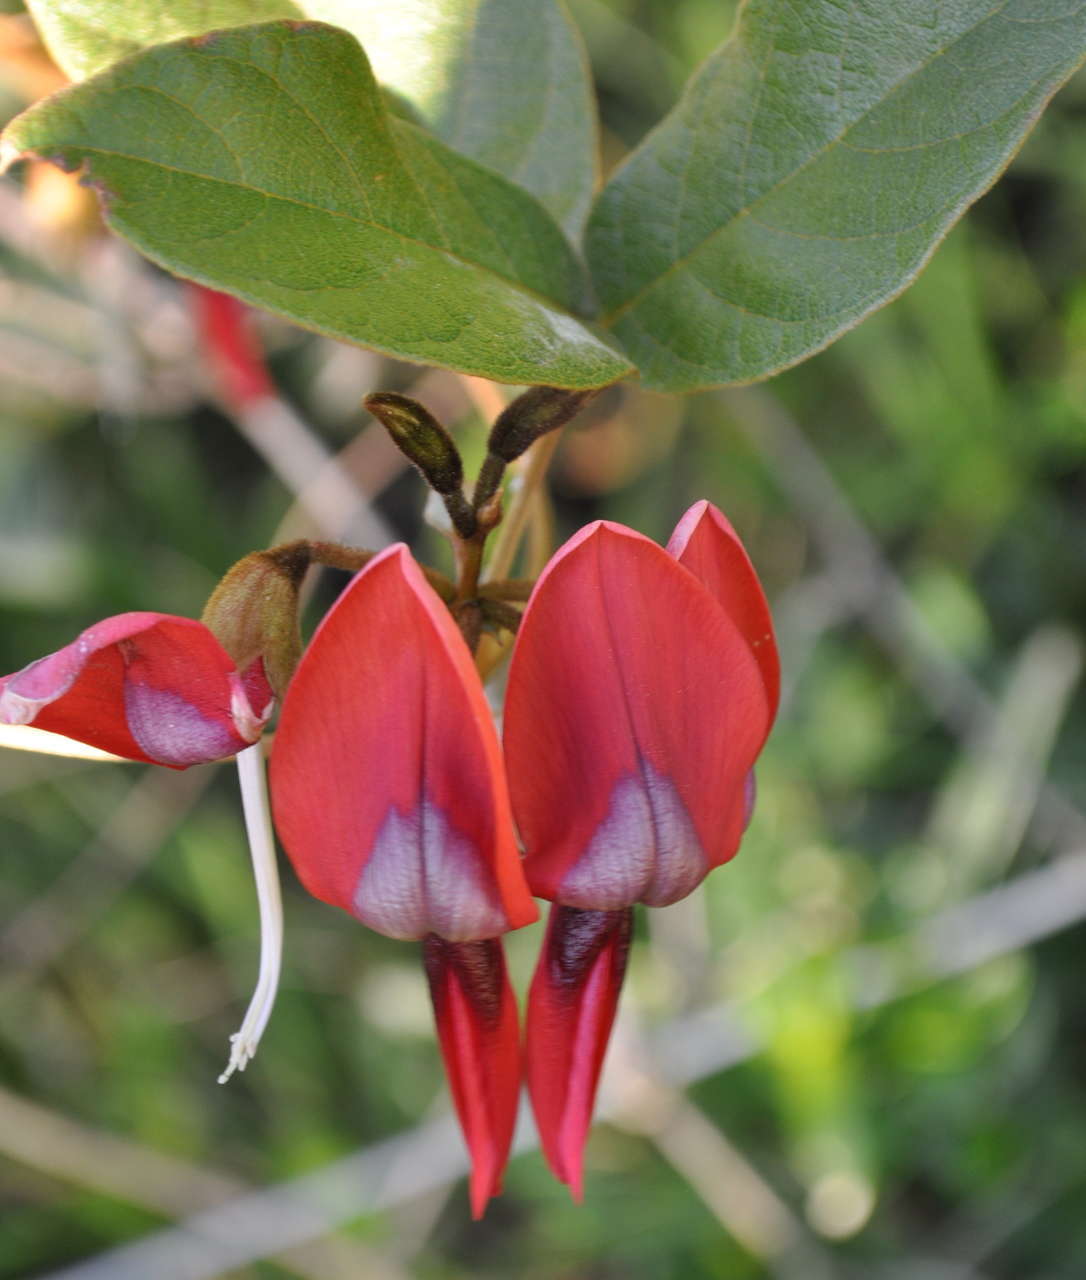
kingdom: Plantae
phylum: Tracheophyta
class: Magnoliopsida
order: Fabales
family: Fabaceae
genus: Kennedia
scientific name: Kennedia rubicunda
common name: Red kennedy-pea
